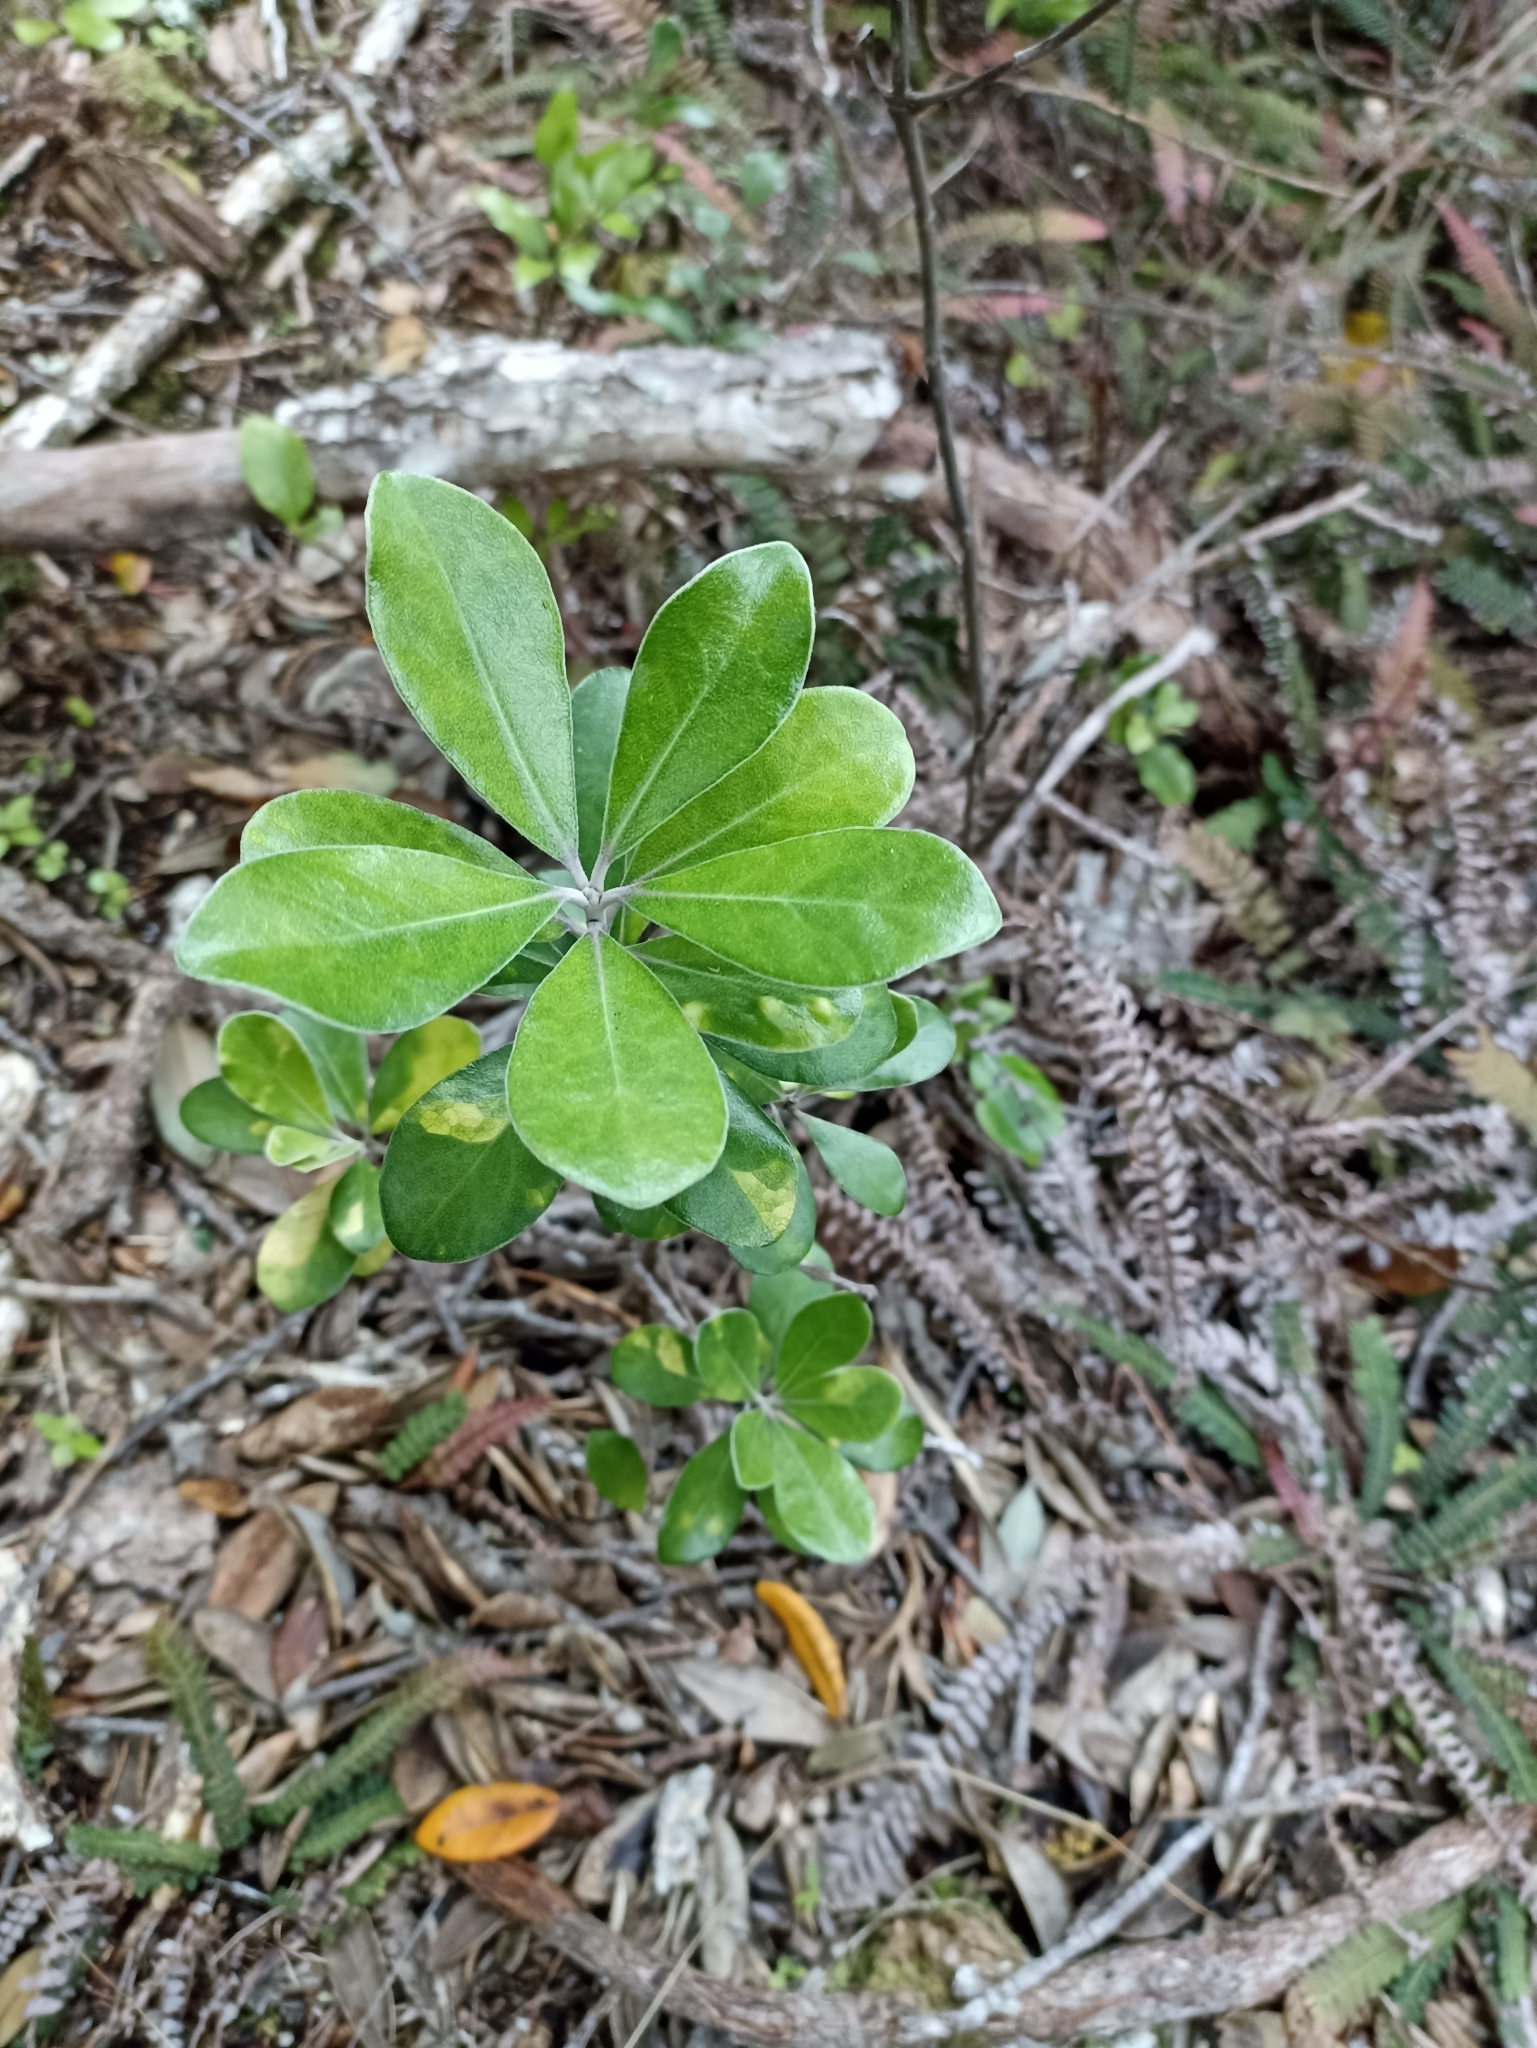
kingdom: Plantae
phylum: Tracheophyta
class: Magnoliopsida
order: Apiales
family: Pittosporaceae
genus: Pittosporum
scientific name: Pittosporum crassifolium
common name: Karo
